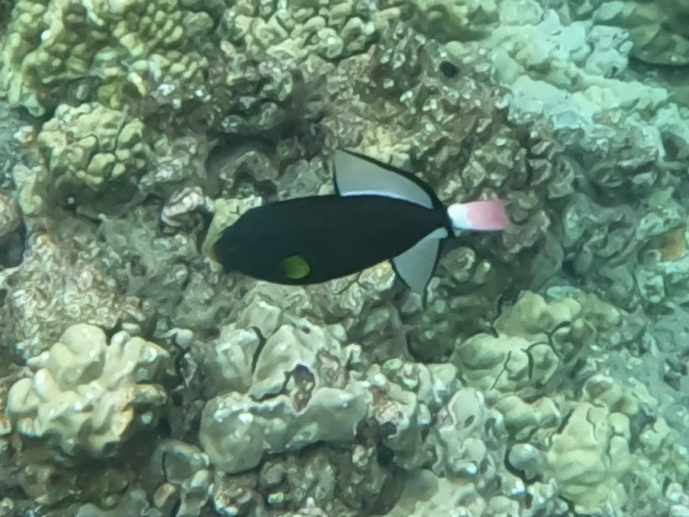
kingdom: Animalia
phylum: Chordata
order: Tetraodontiformes
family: Balistidae
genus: Melichthys
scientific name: Melichthys vidua
